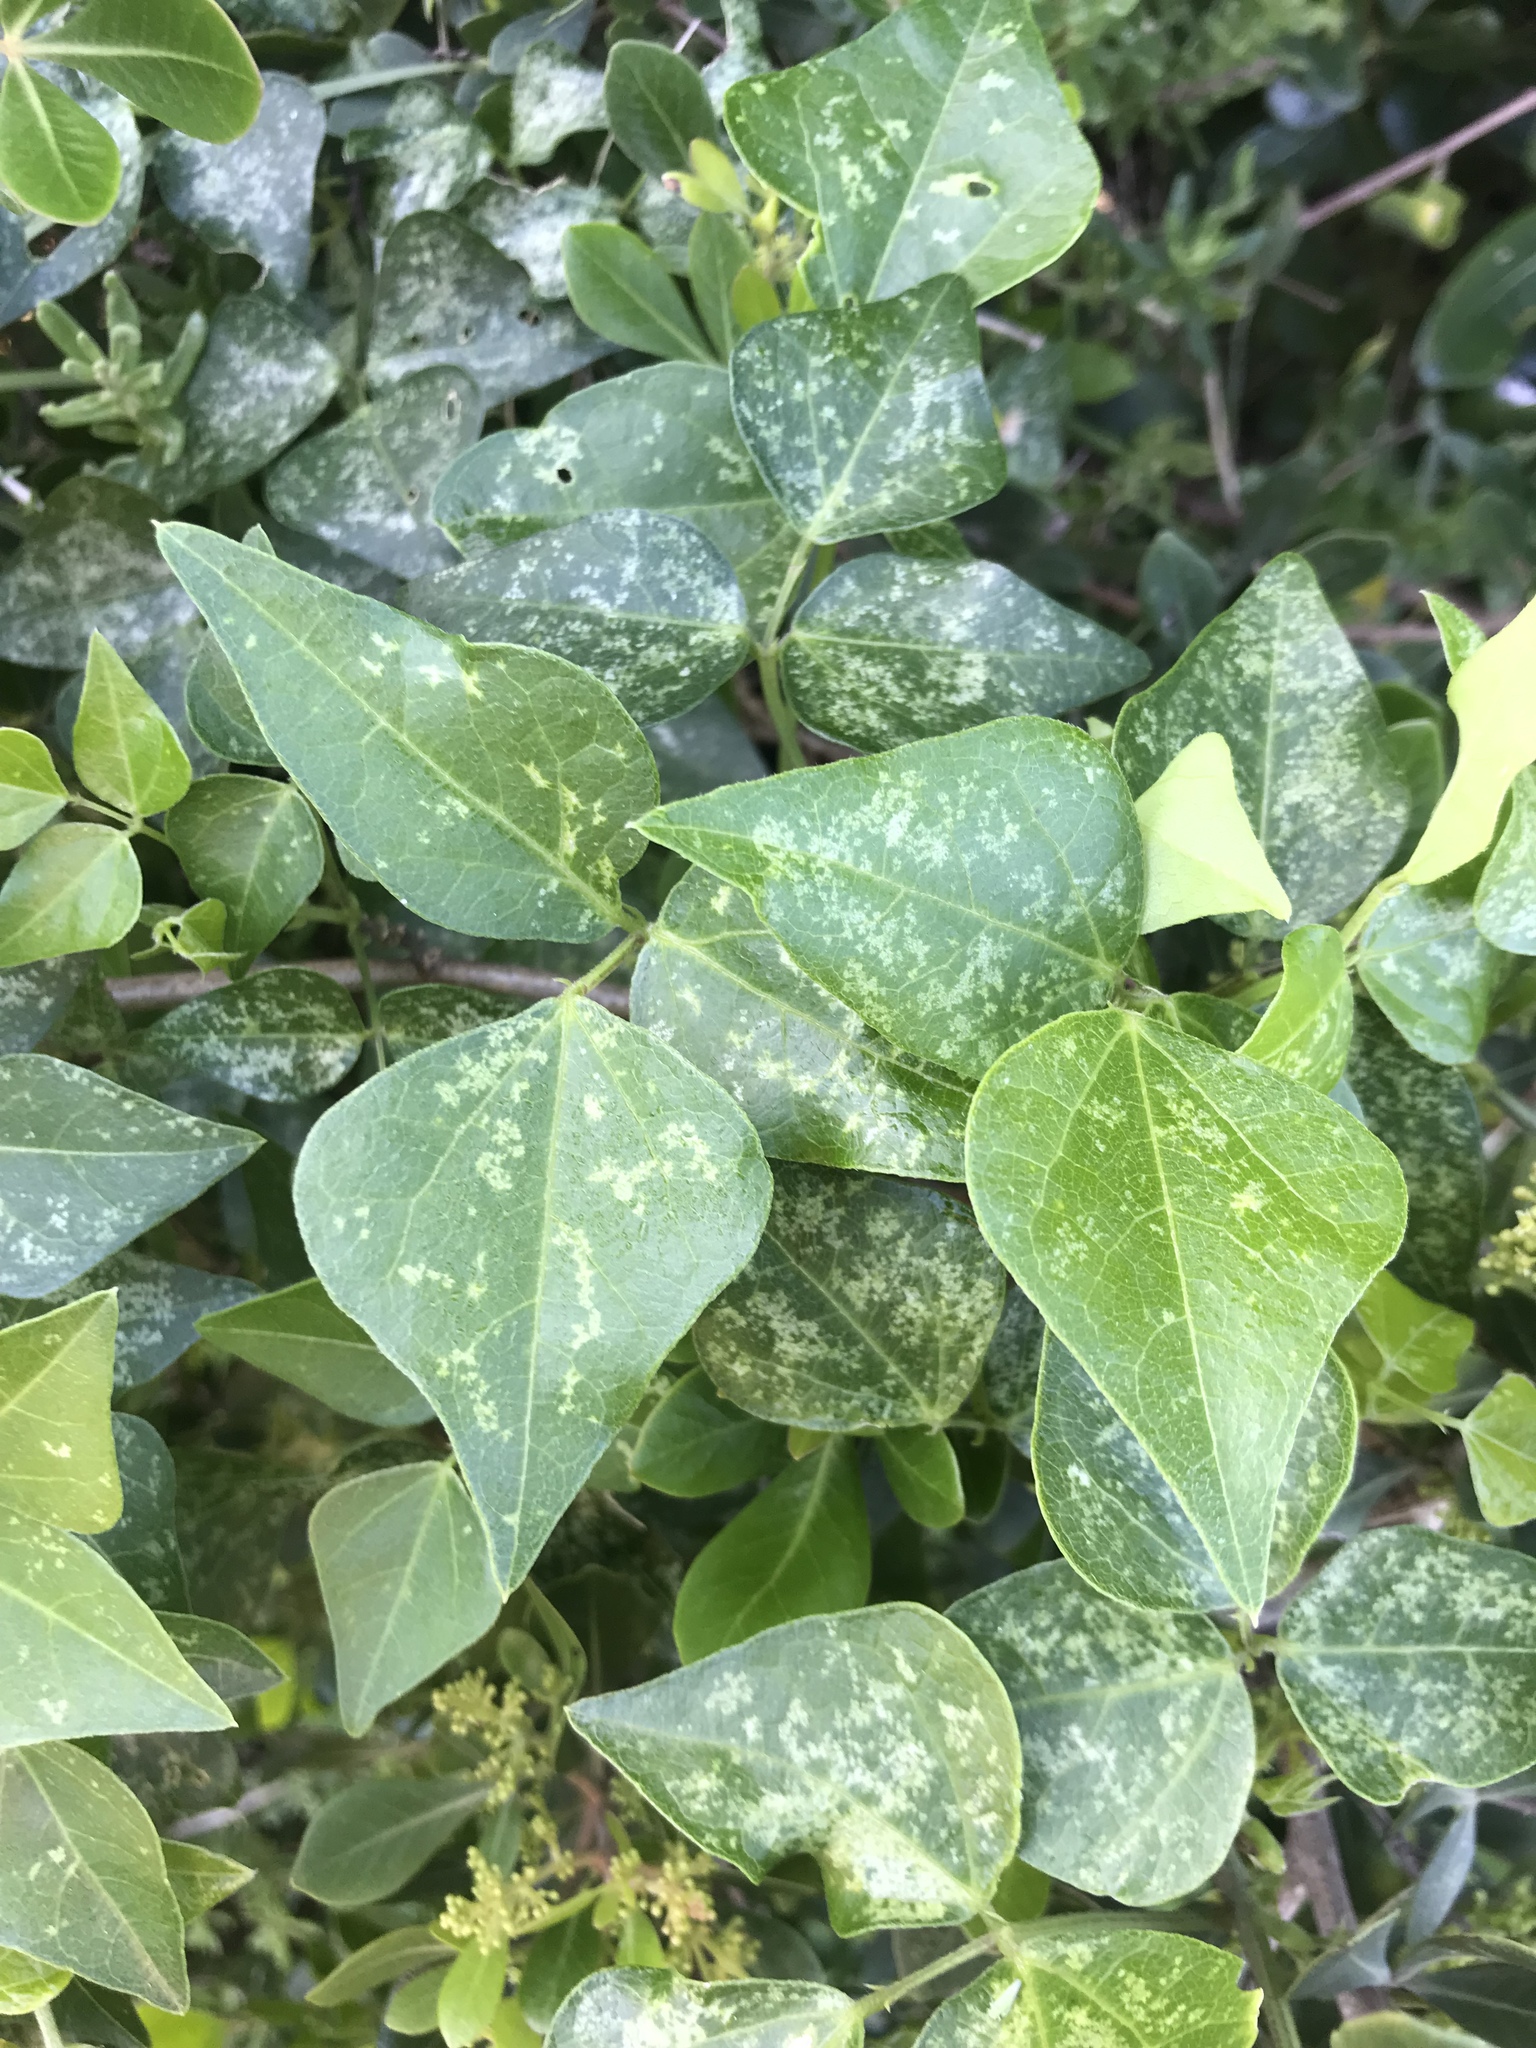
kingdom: Plantae
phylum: Tracheophyta
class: Magnoliopsida
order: Fabales
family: Fabaceae
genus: Dipogon
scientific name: Dipogon lignosus
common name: Okie bean
